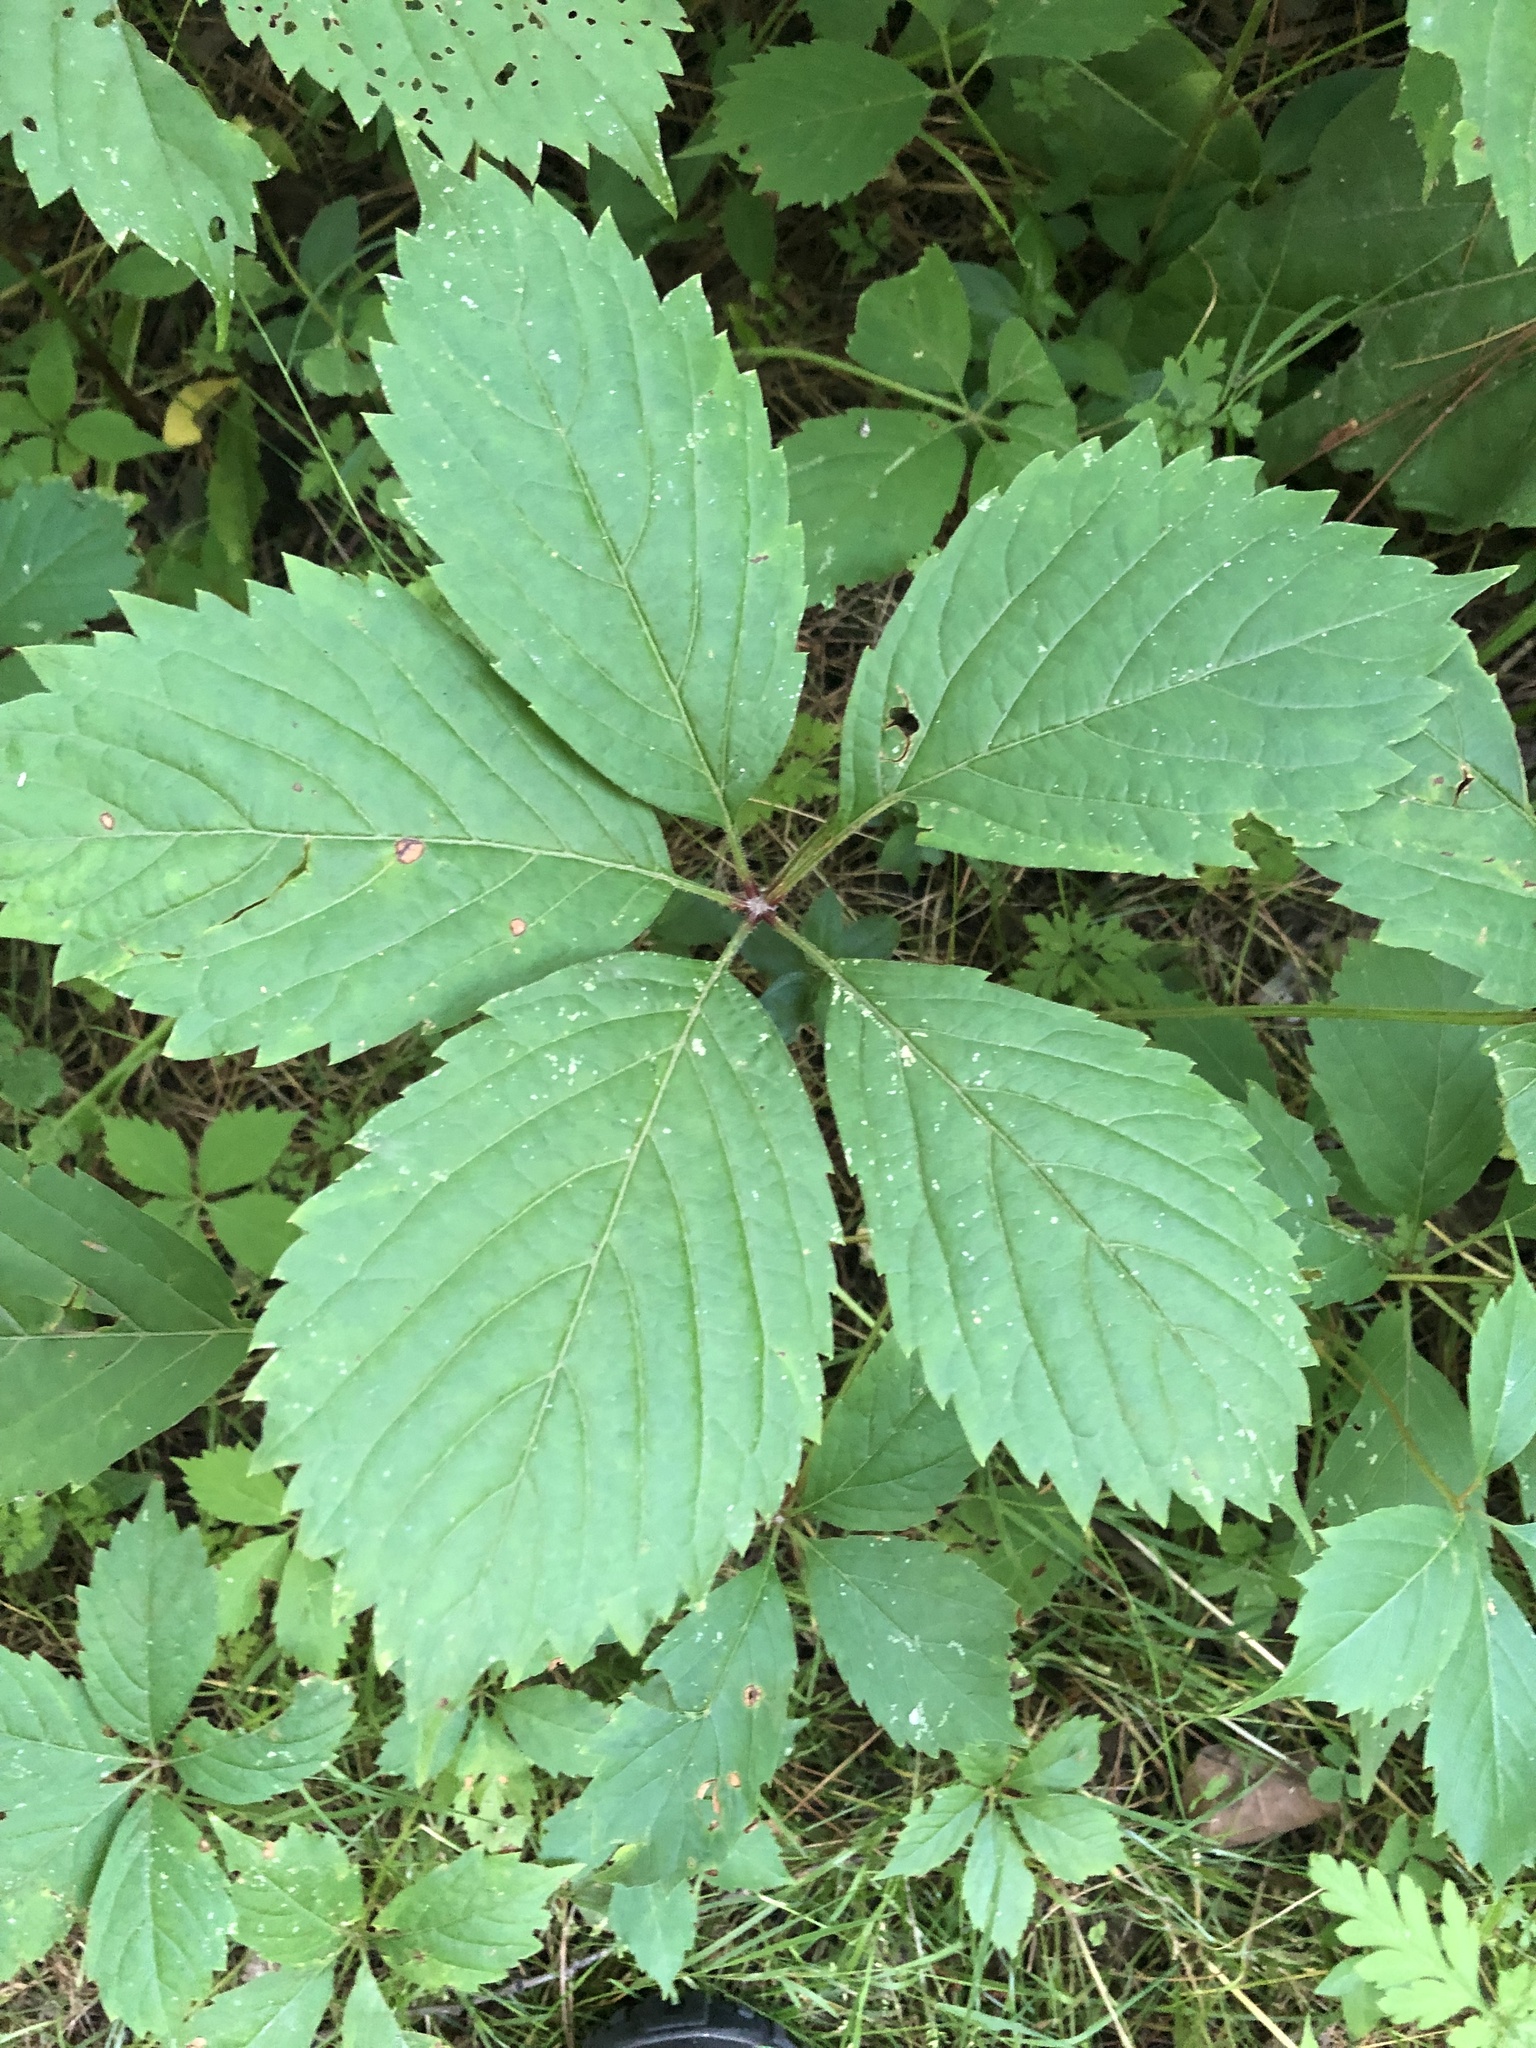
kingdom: Plantae
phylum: Tracheophyta
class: Magnoliopsida
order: Vitales
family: Vitaceae
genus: Parthenocissus
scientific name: Parthenocissus inserta
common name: False virginia-creeper
